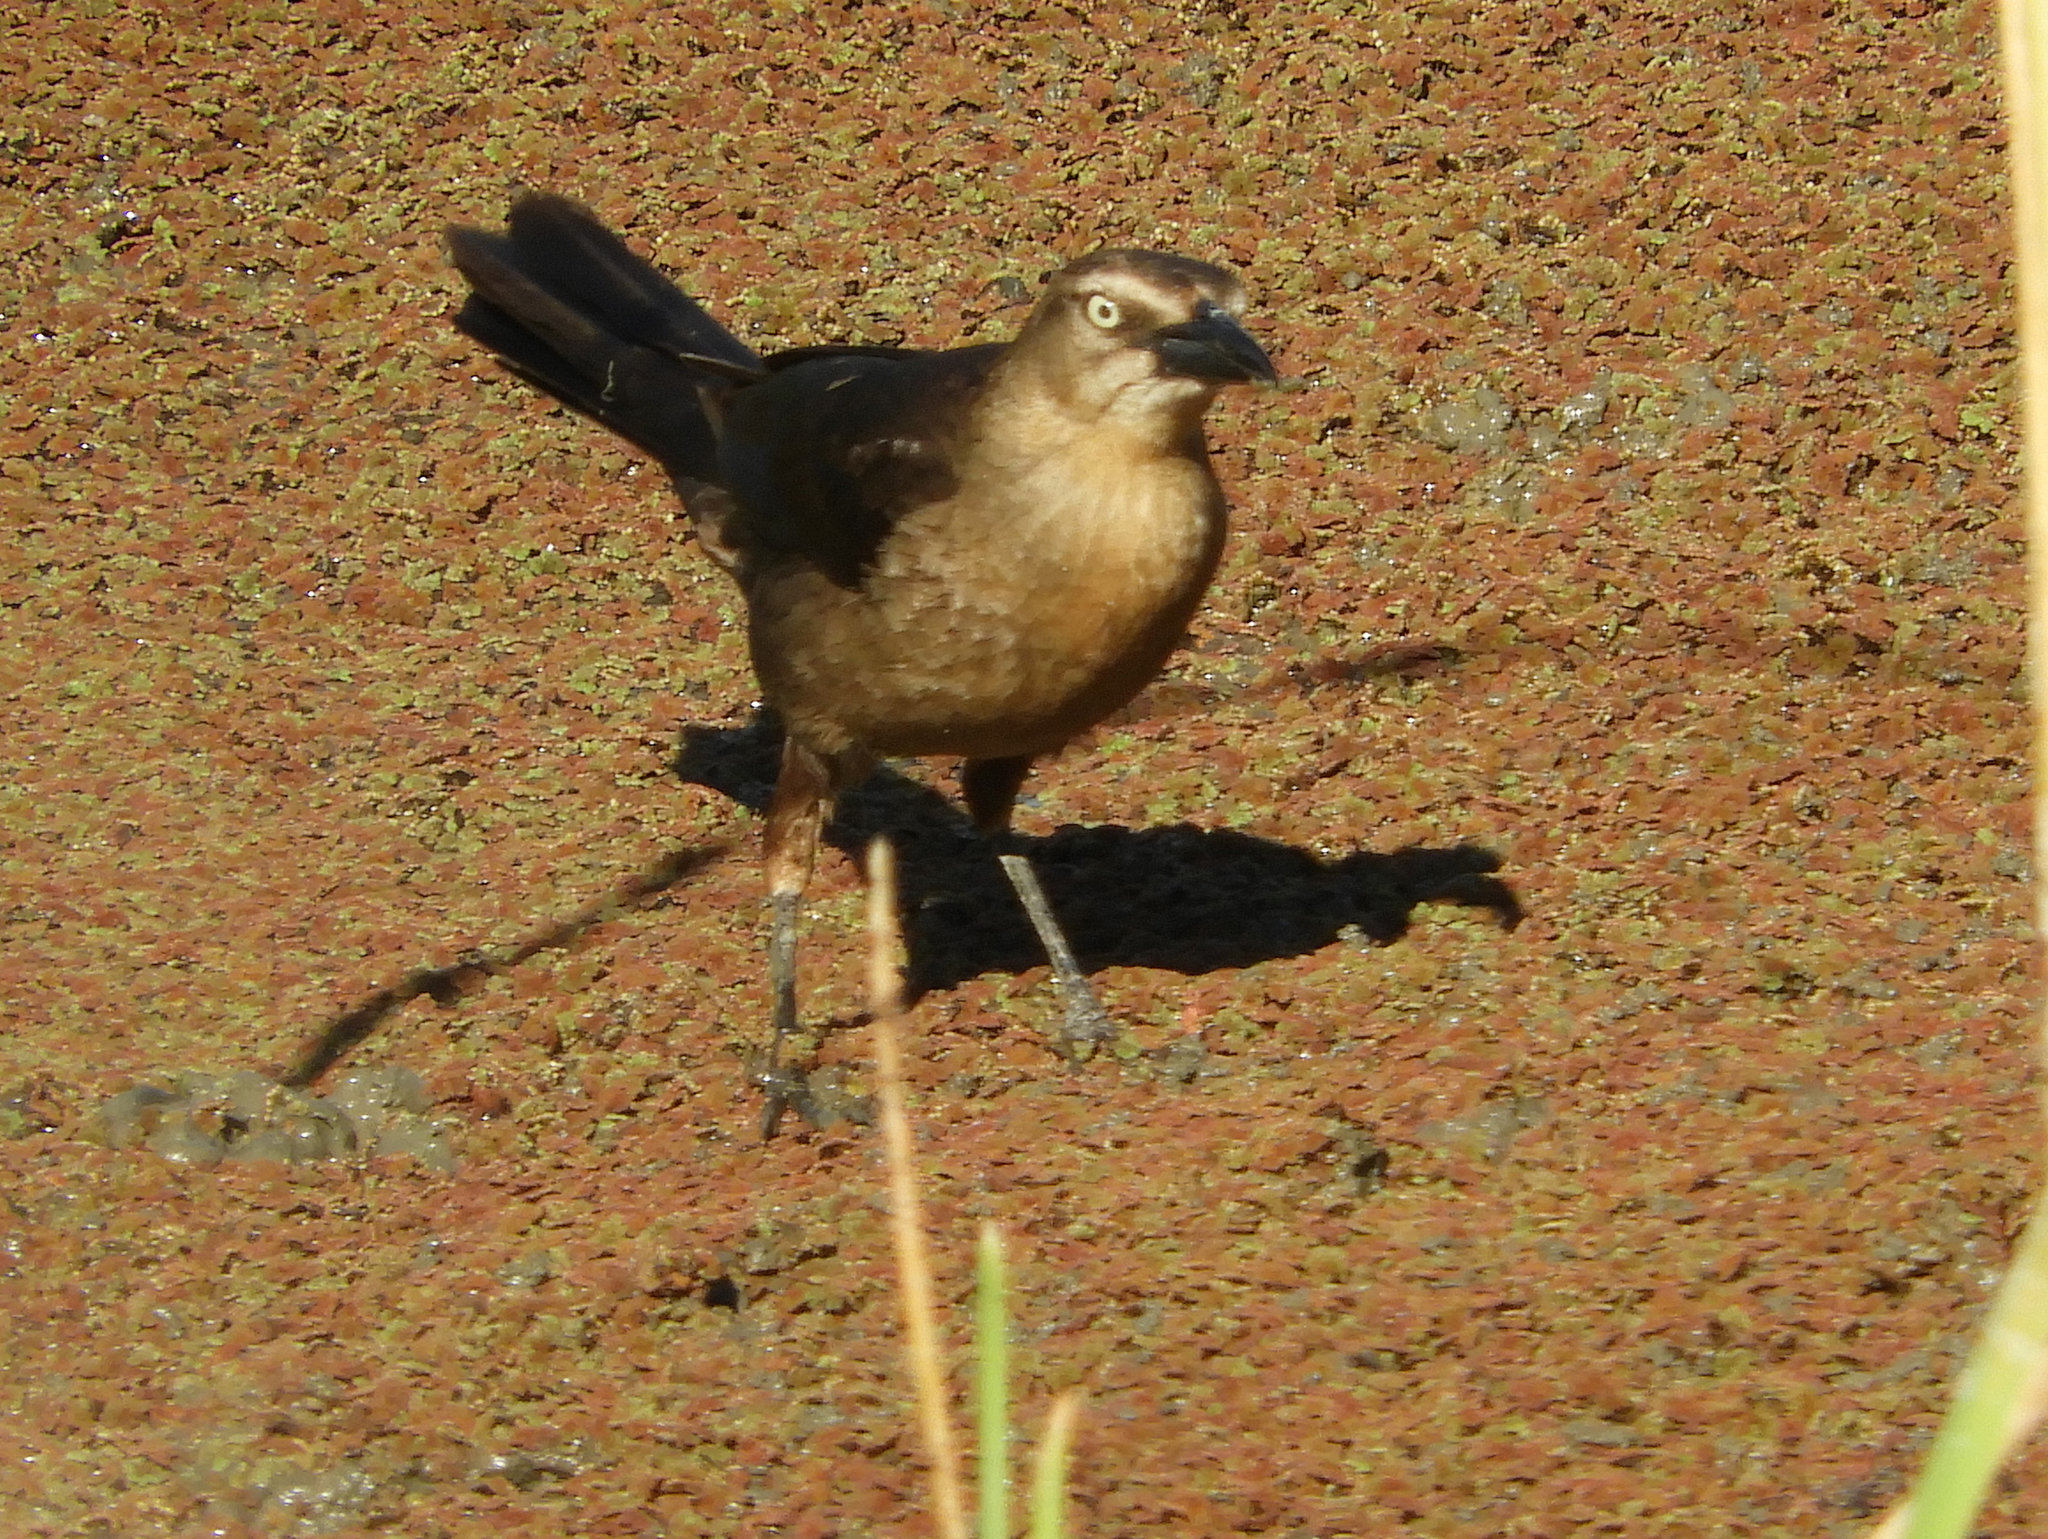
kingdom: Animalia
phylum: Chordata
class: Aves
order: Passeriformes
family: Icteridae
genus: Quiscalus
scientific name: Quiscalus mexicanus
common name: Great-tailed grackle
